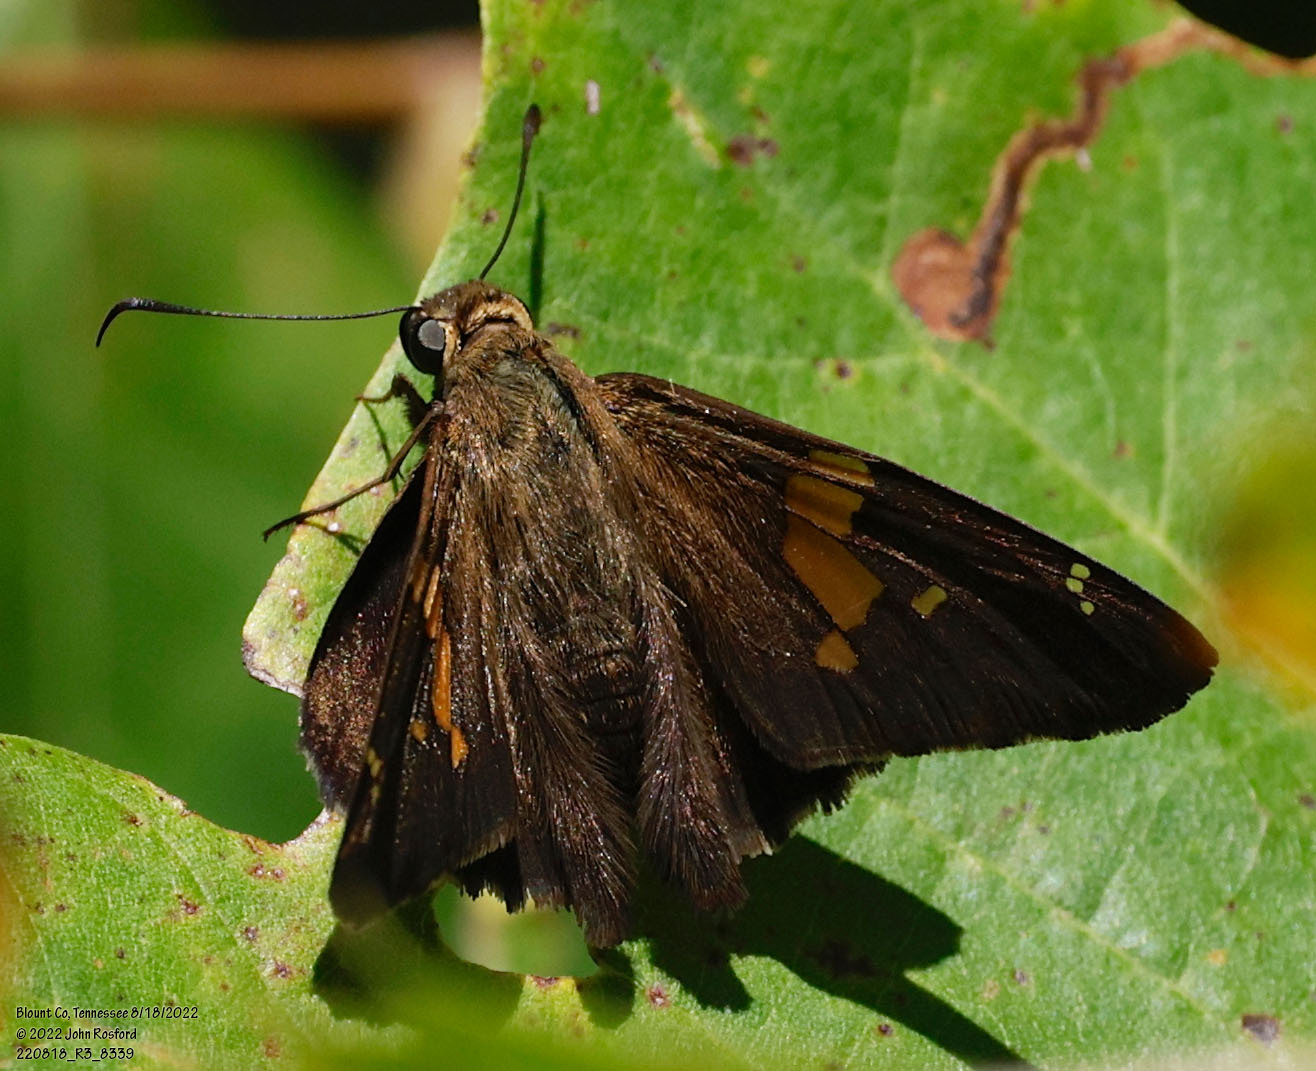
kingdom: Animalia
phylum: Arthropoda
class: Insecta
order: Lepidoptera
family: Hesperiidae
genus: Epargyreus
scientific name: Epargyreus clarus
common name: Silver-spotted skipper
